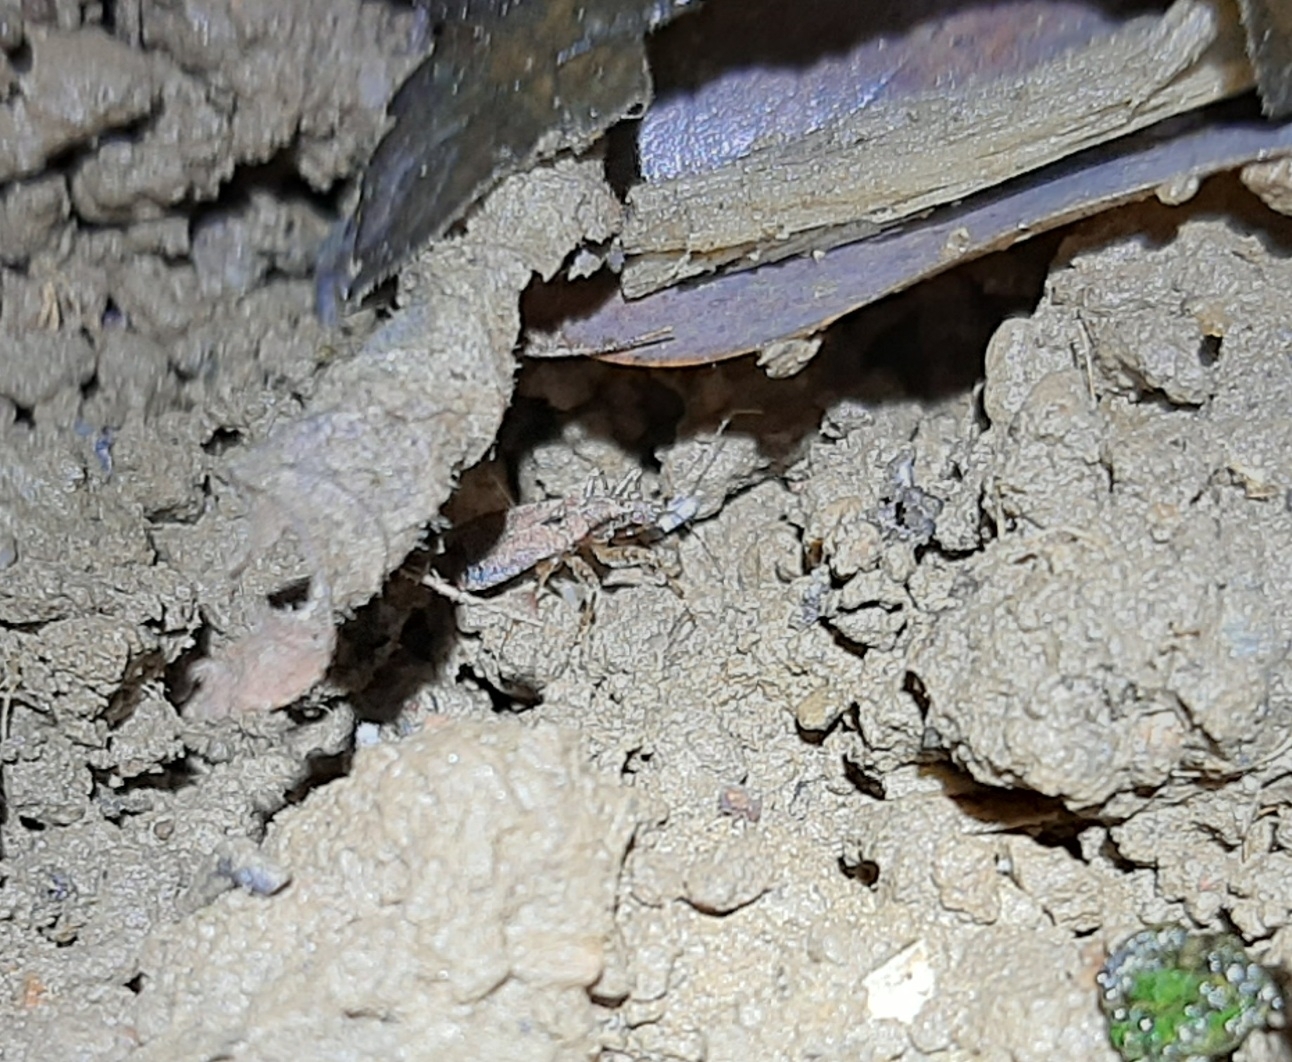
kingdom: Animalia
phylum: Arthropoda
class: Insecta
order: Hemiptera
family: Nabidae
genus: Himacerus
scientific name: Himacerus mirmicoides
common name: Ant damsel bug
